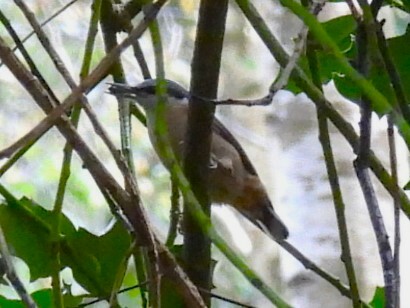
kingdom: Animalia
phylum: Chordata
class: Aves
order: Passeriformes
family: Sittidae
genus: Sitta
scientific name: Sitta europaea
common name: Eurasian nuthatch
